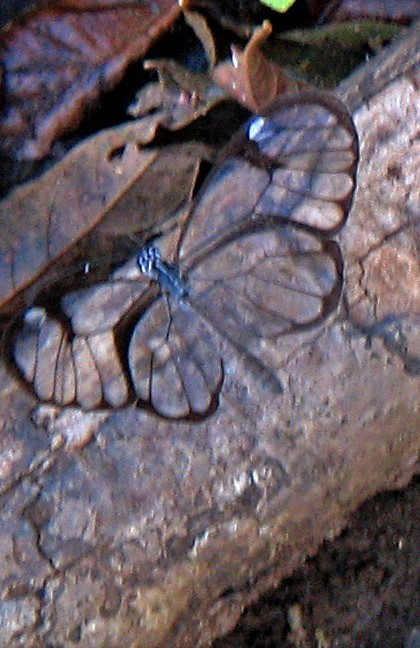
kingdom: Animalia
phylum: Arthropoda
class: Insecta
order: Lepidoptera
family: Nymphalidae
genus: Pseudoscada
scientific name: Pseudoscada erruca
